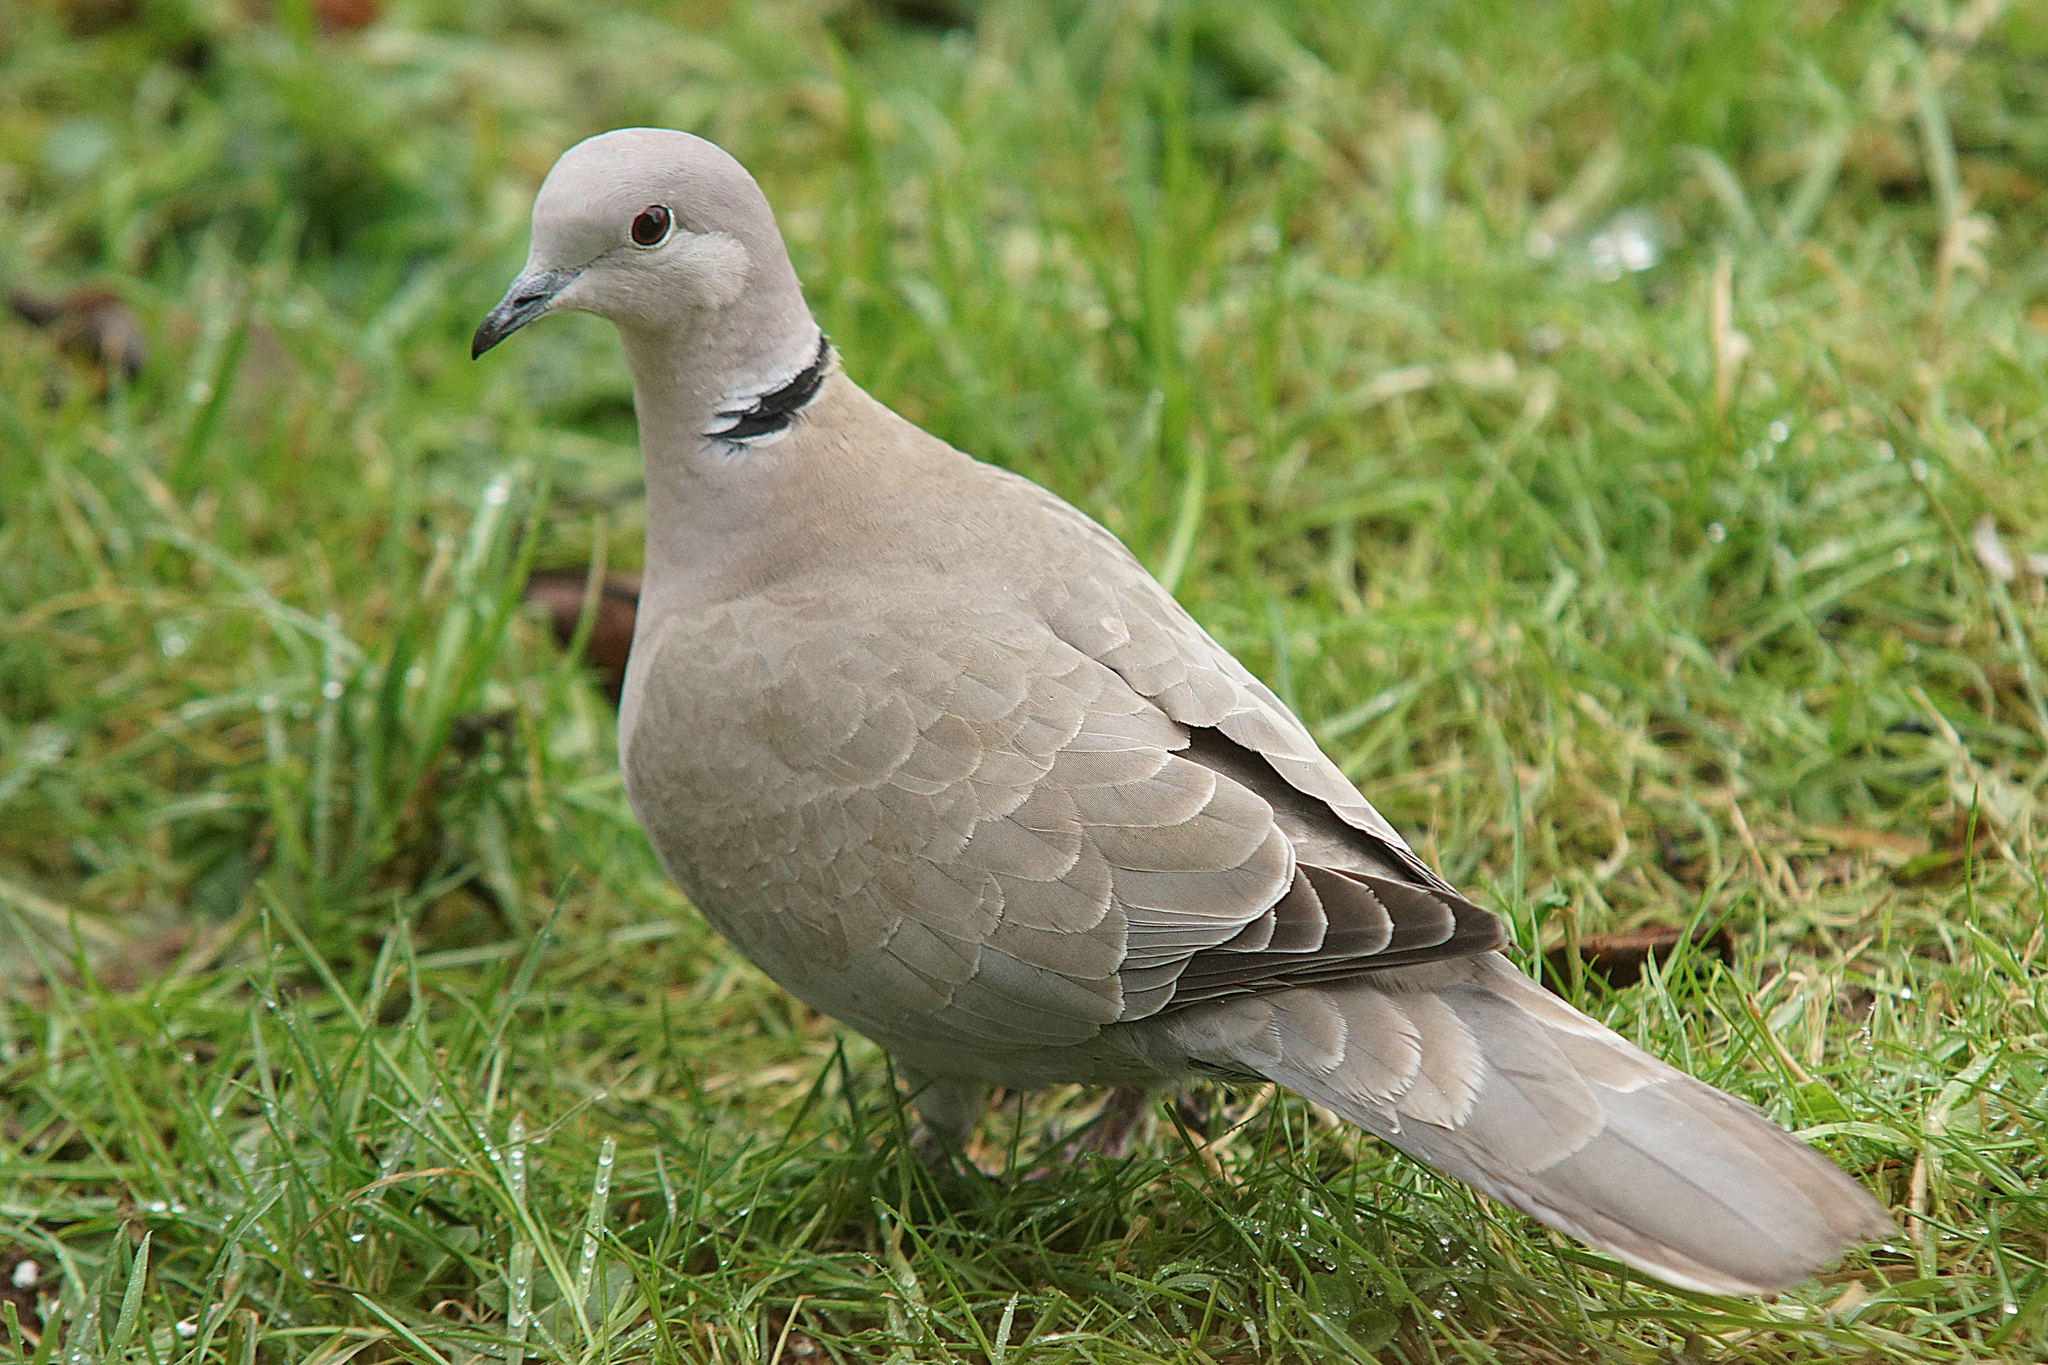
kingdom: Animalia
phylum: Chordata
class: Aves
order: Columbiformes
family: Columbidae
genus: Streptopelia
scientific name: Streptopelia decaocto
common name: Eurasian collared dove
